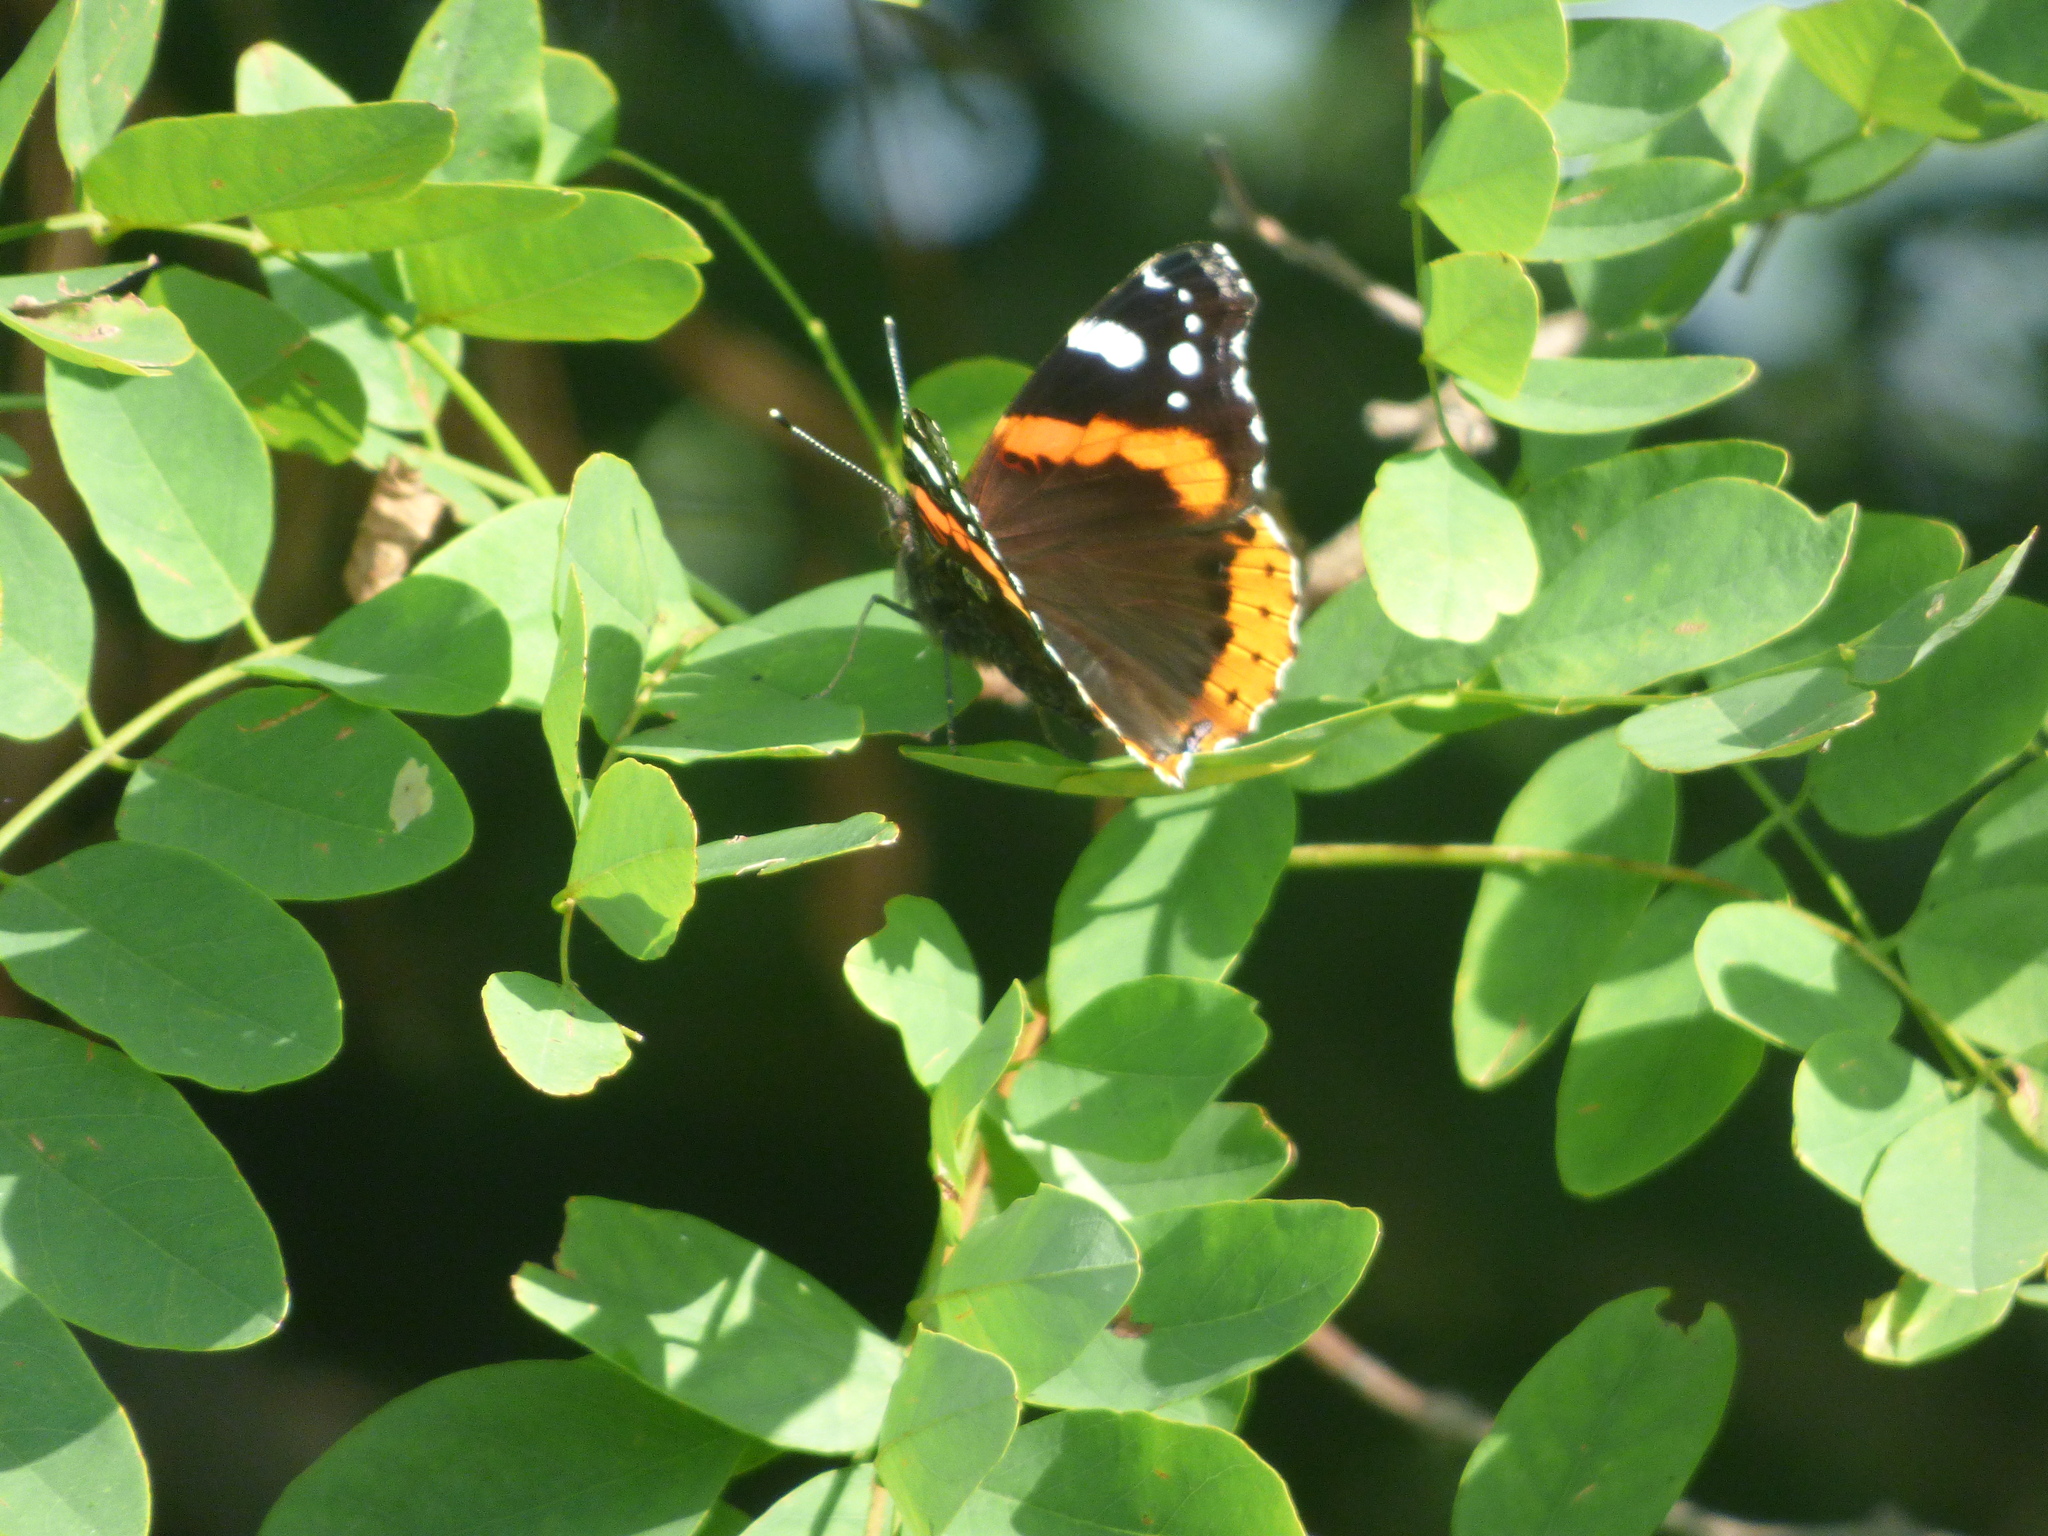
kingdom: Animalia
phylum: Arthropoda
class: Insecta
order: Lepidoptera
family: Nymphalidae
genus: Vanessa
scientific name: Vanessa atalanta
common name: Red admiral
